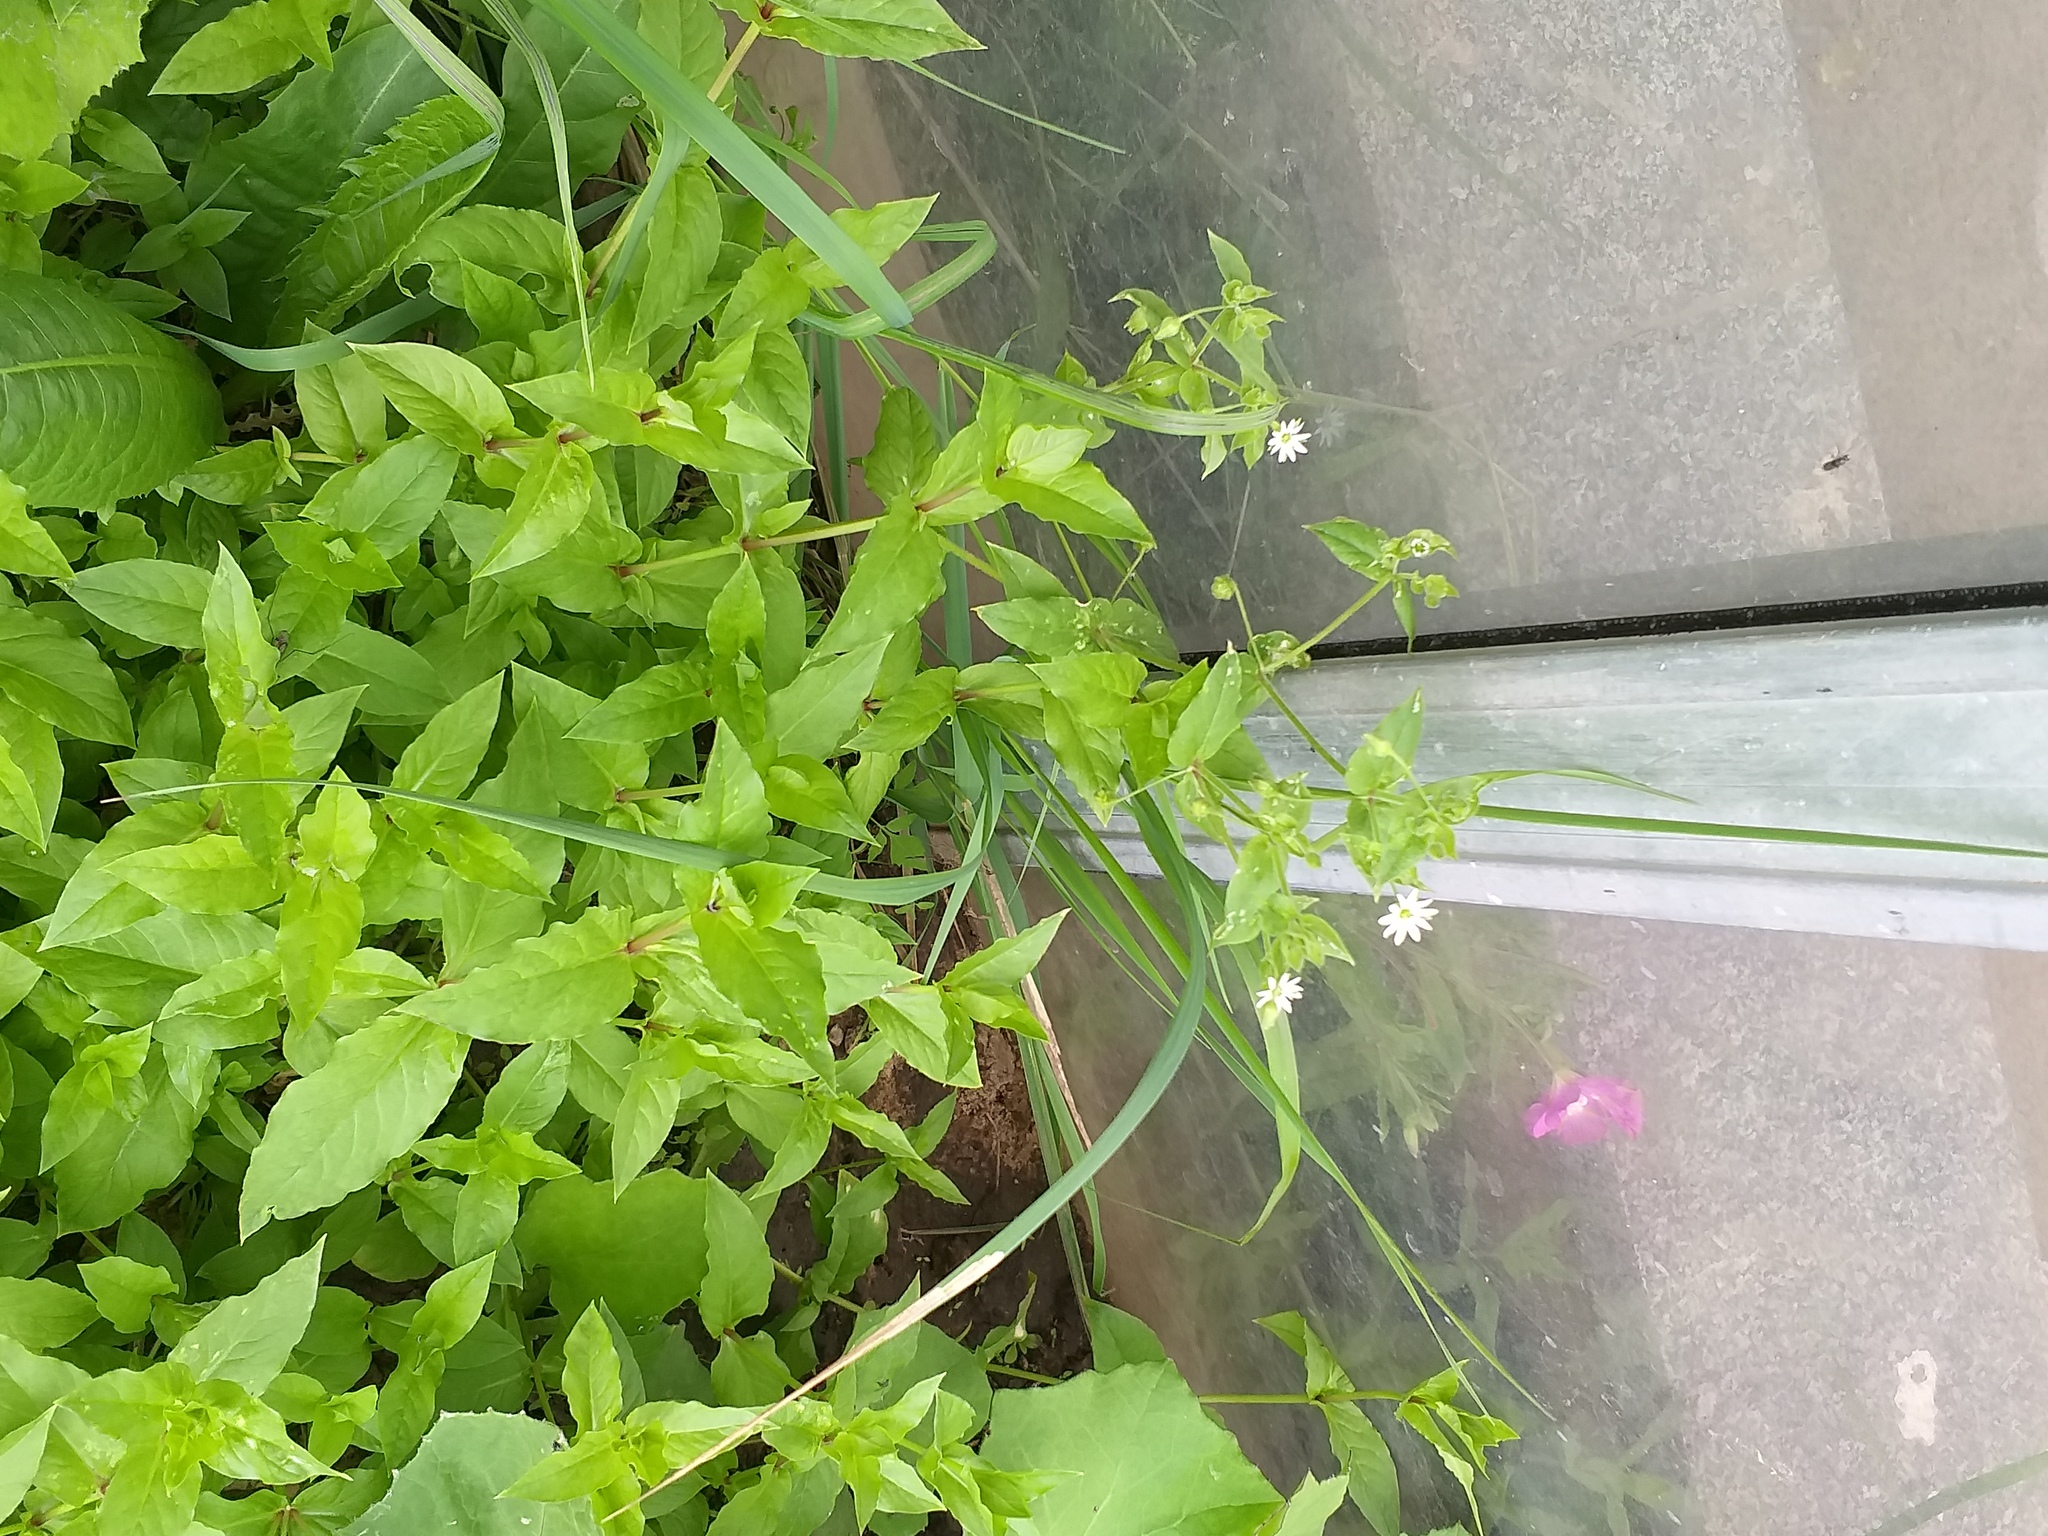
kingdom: Plantae
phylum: Tracheophyta
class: Magnoliopsida
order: Caryophyllales
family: Caryophyllaceae
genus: Stellaria
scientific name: Stellaria aquatica
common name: Water chickweed
